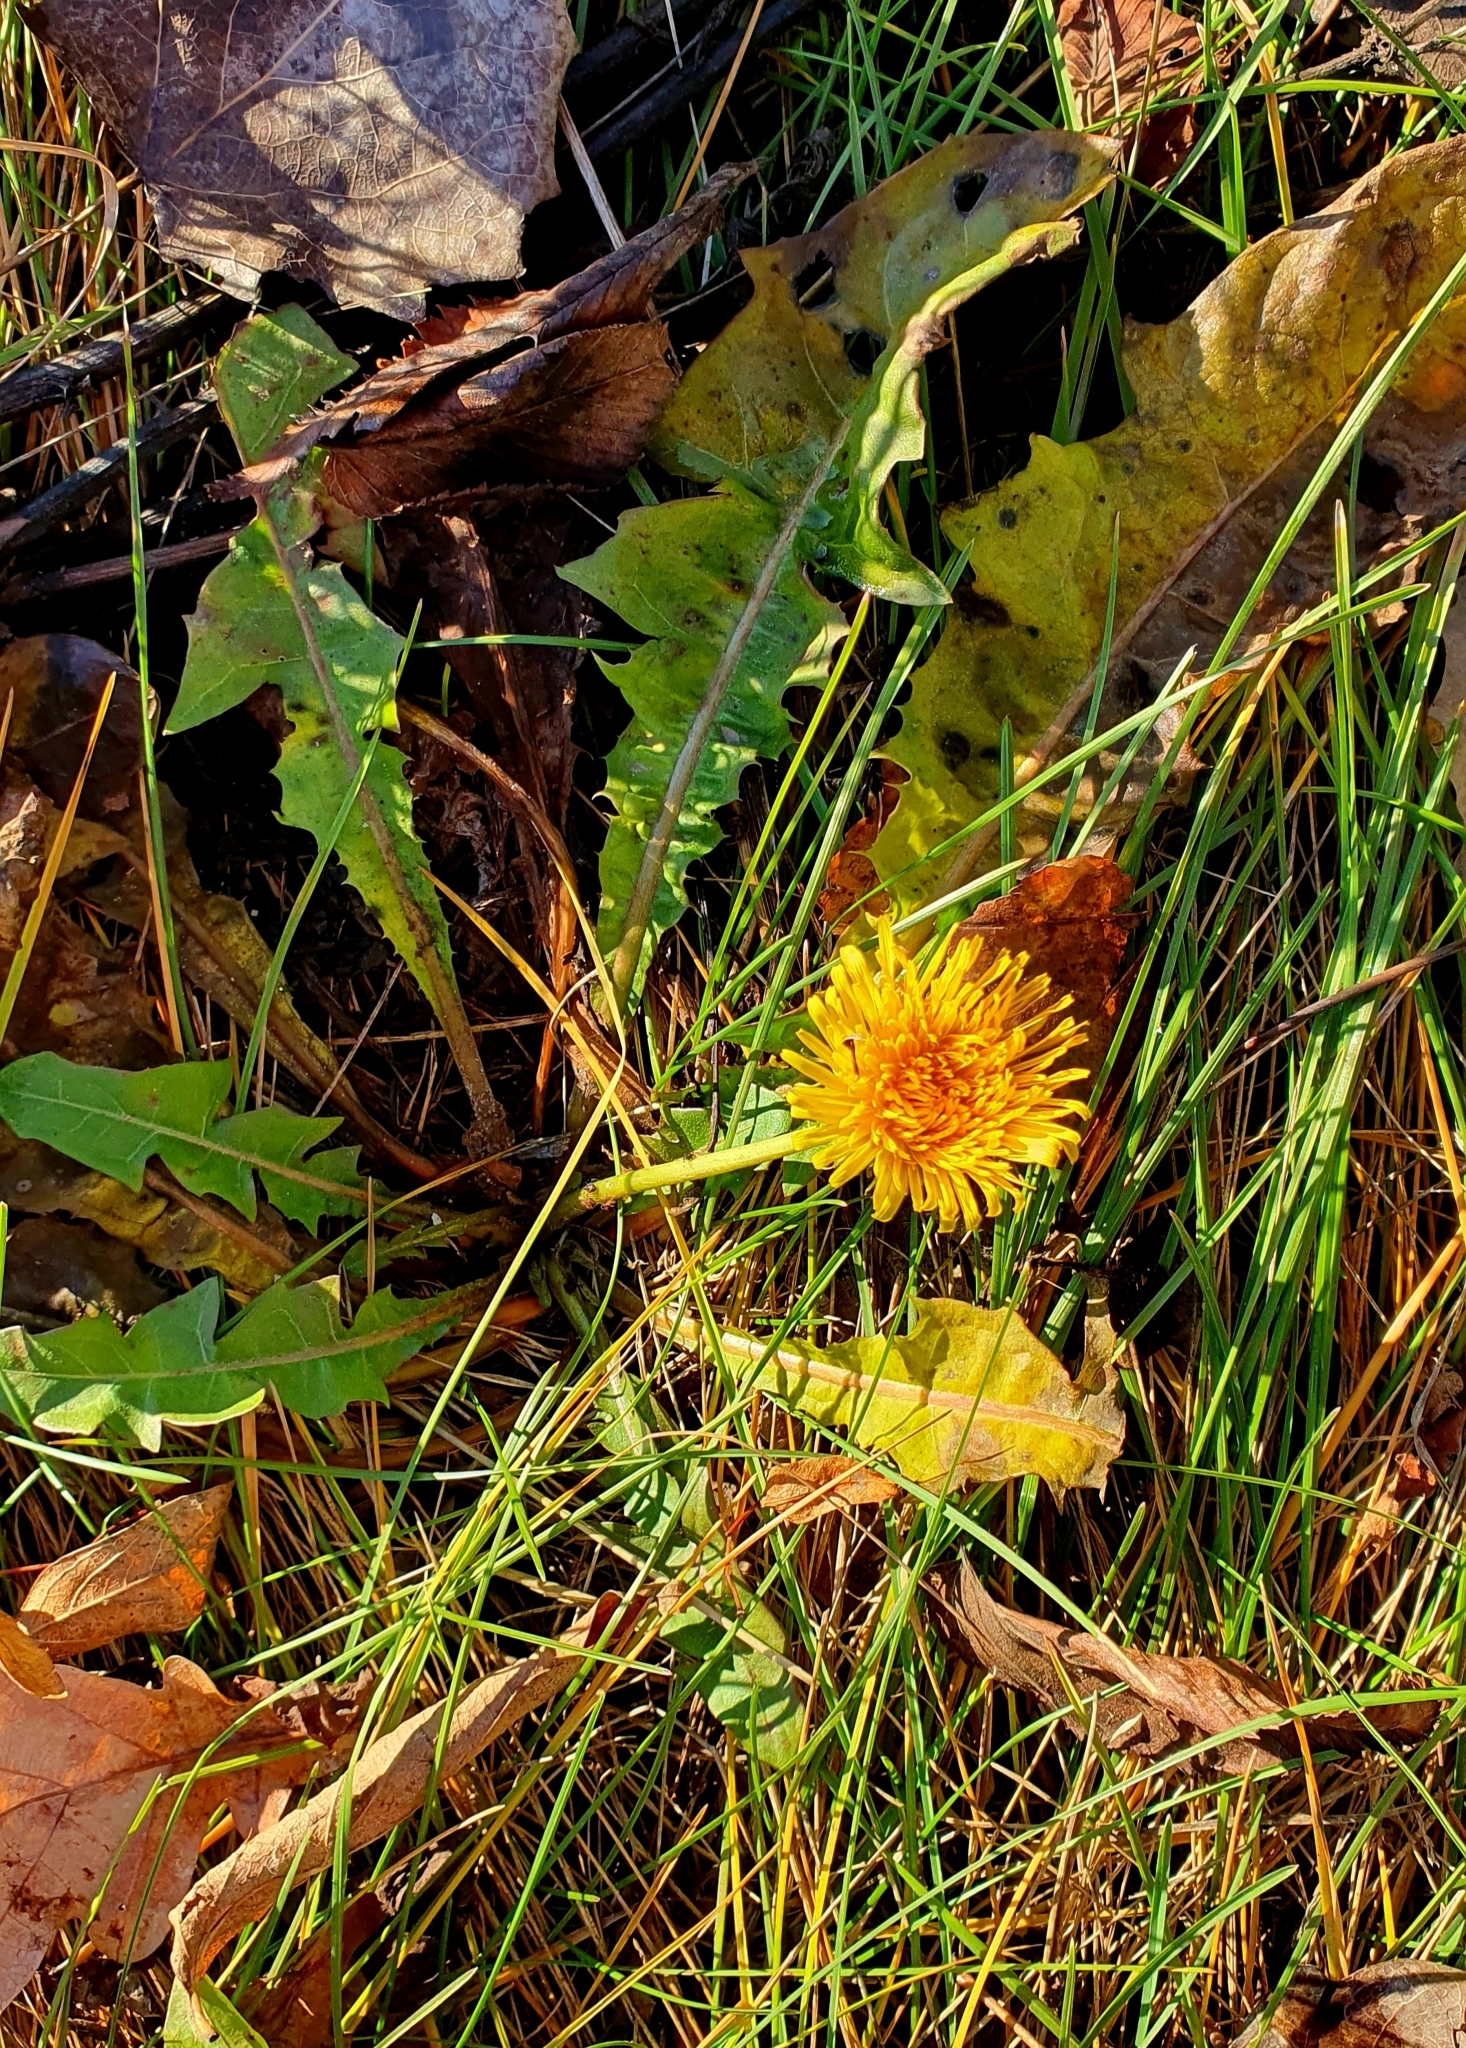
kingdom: Plantae
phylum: Tracheophyta
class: Magnoliopsida
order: Asterales
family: Asteraceae
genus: Taraxacum
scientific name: Taraxacum officinale
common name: Common dandelion
